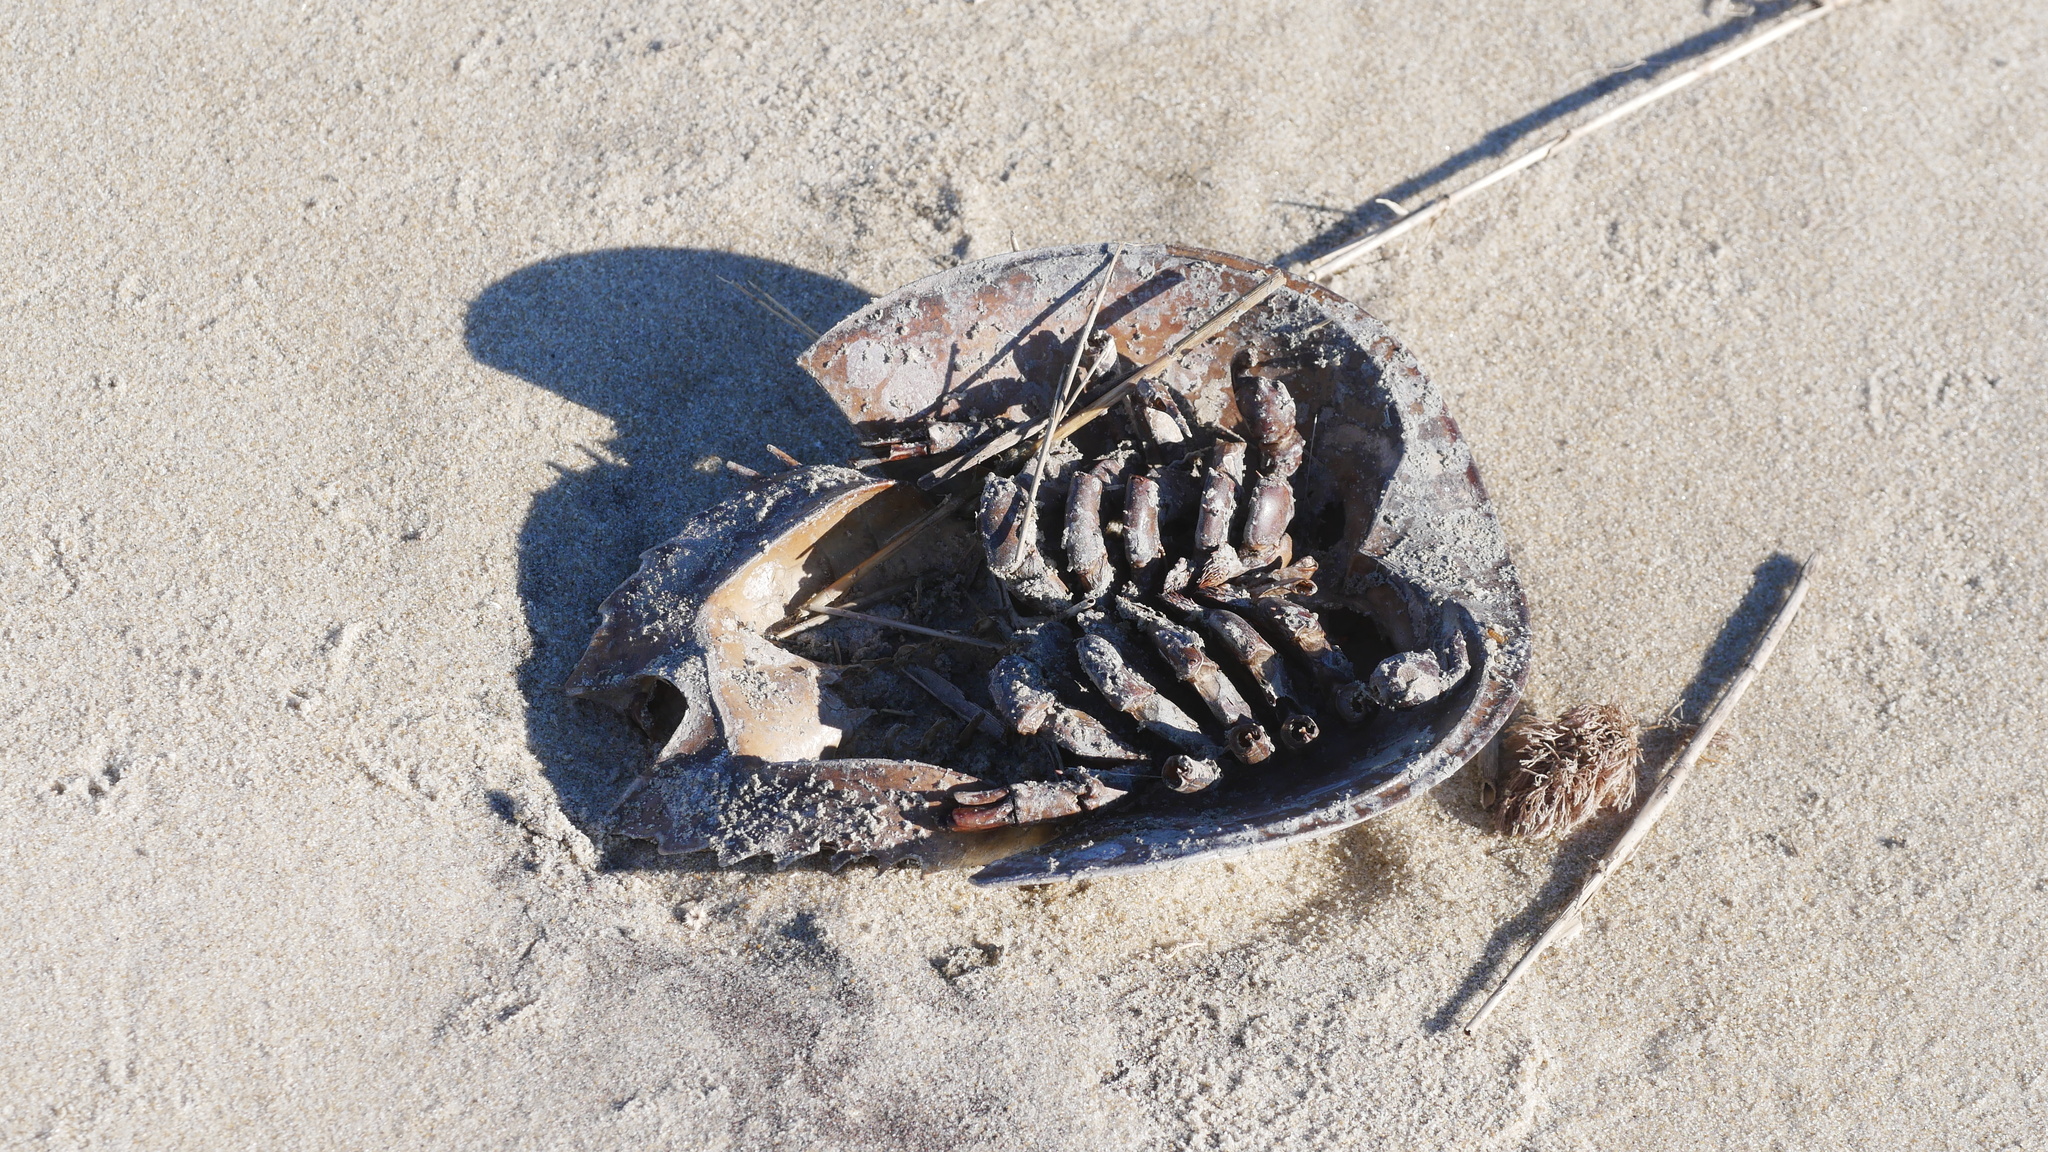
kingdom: Animalia
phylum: Arthropoda
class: Merostomata
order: Xiphosurida
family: Limulidae
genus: Limulus
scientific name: Limulus polyphemus
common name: Horseshoe crab
